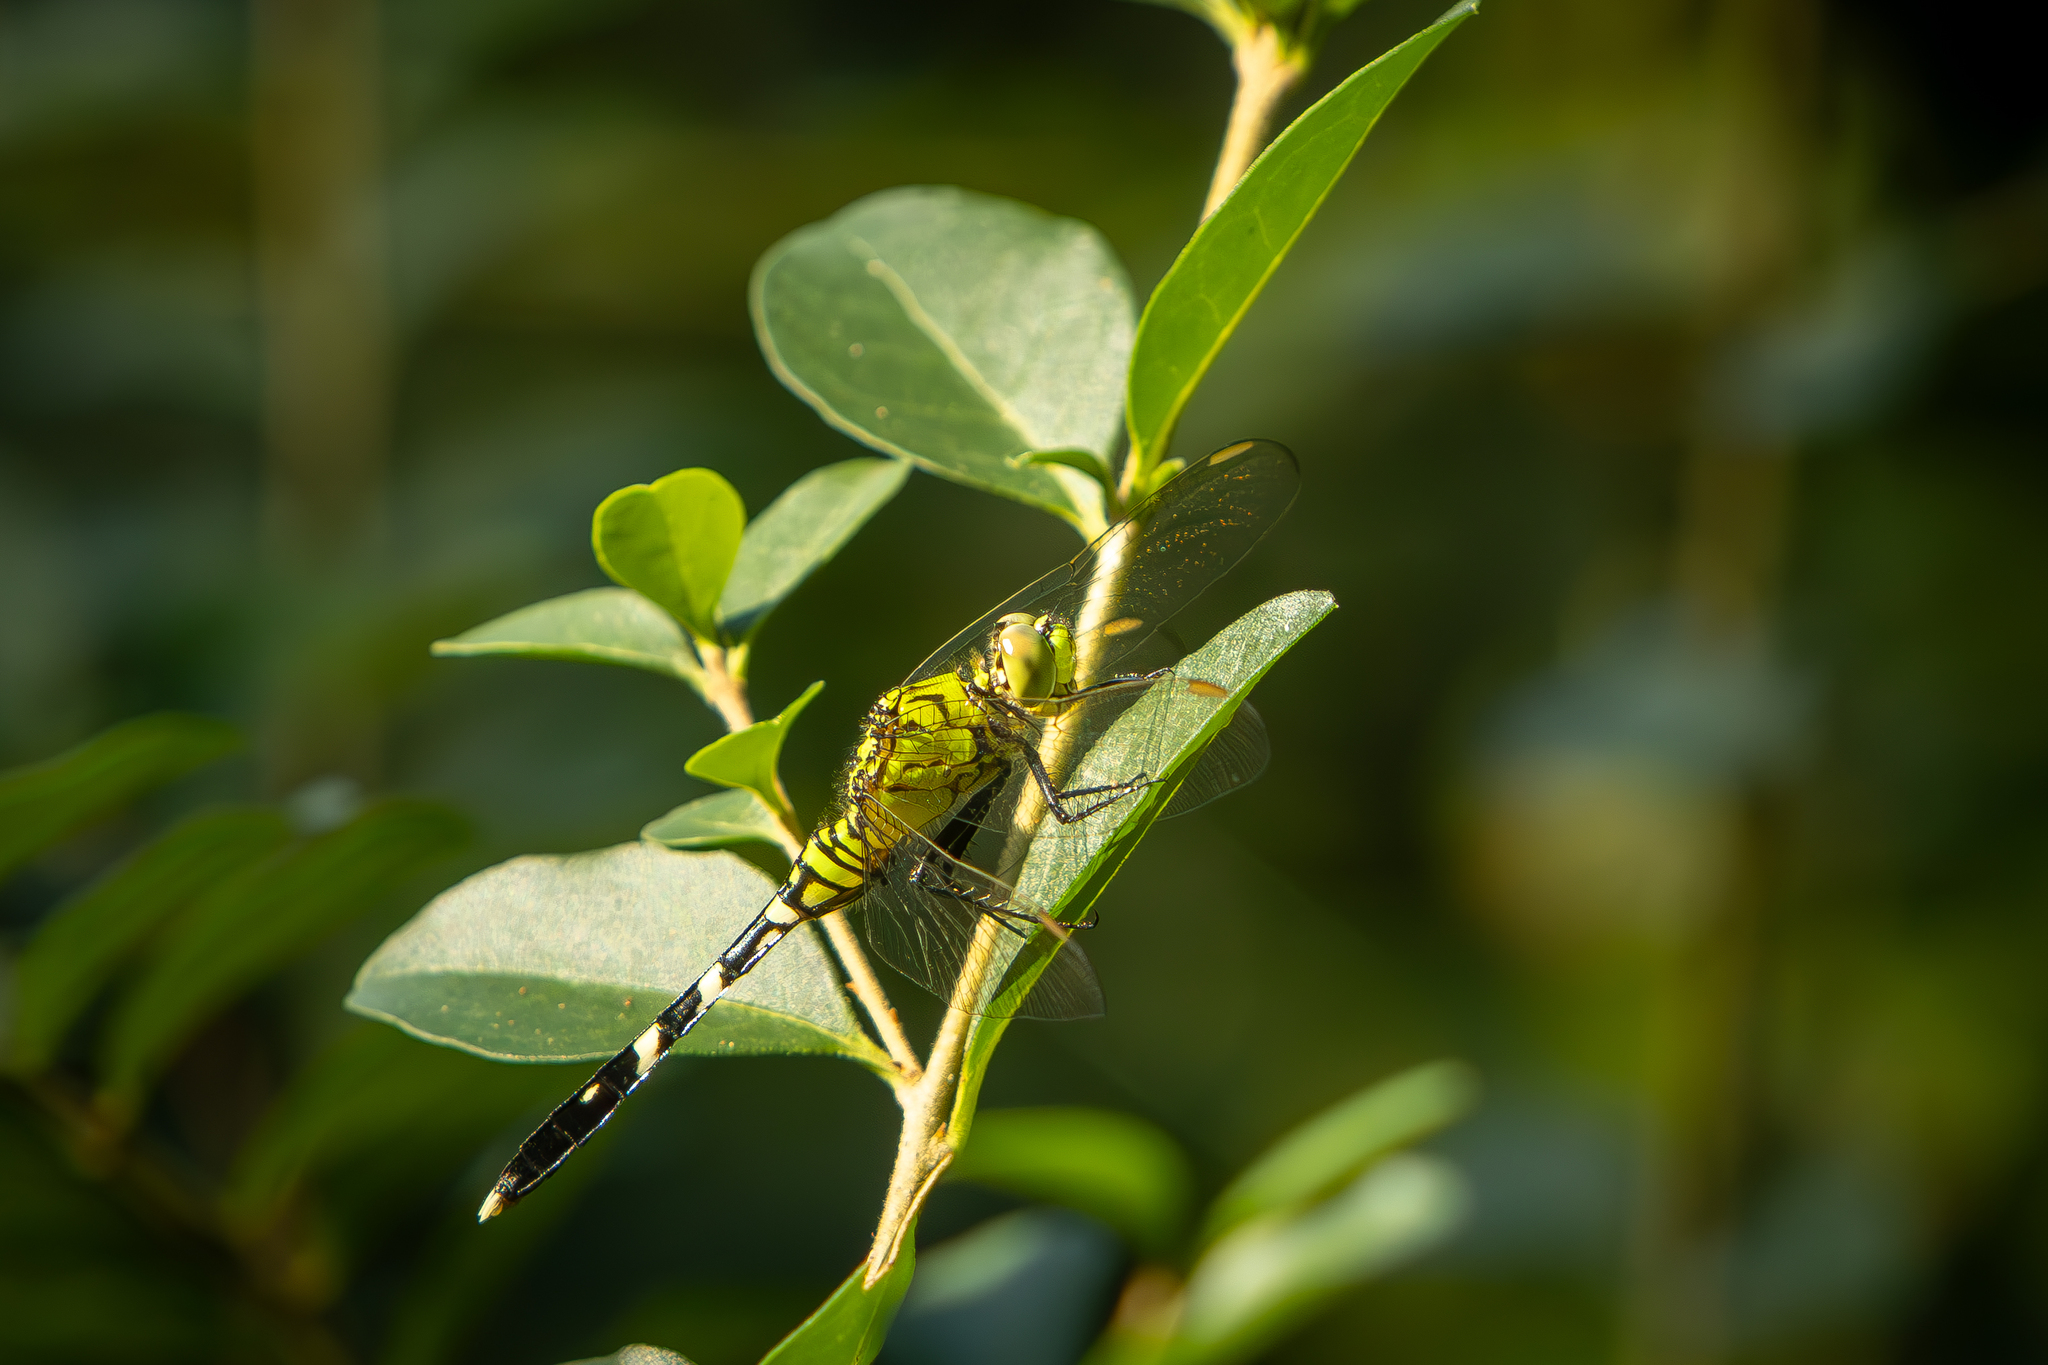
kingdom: Animalia
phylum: Arthropoda
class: Insecta
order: Odonata
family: Libellulidae
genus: Erythemis
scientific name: Erythemis simplicicollis
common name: Eastern pondhawk
